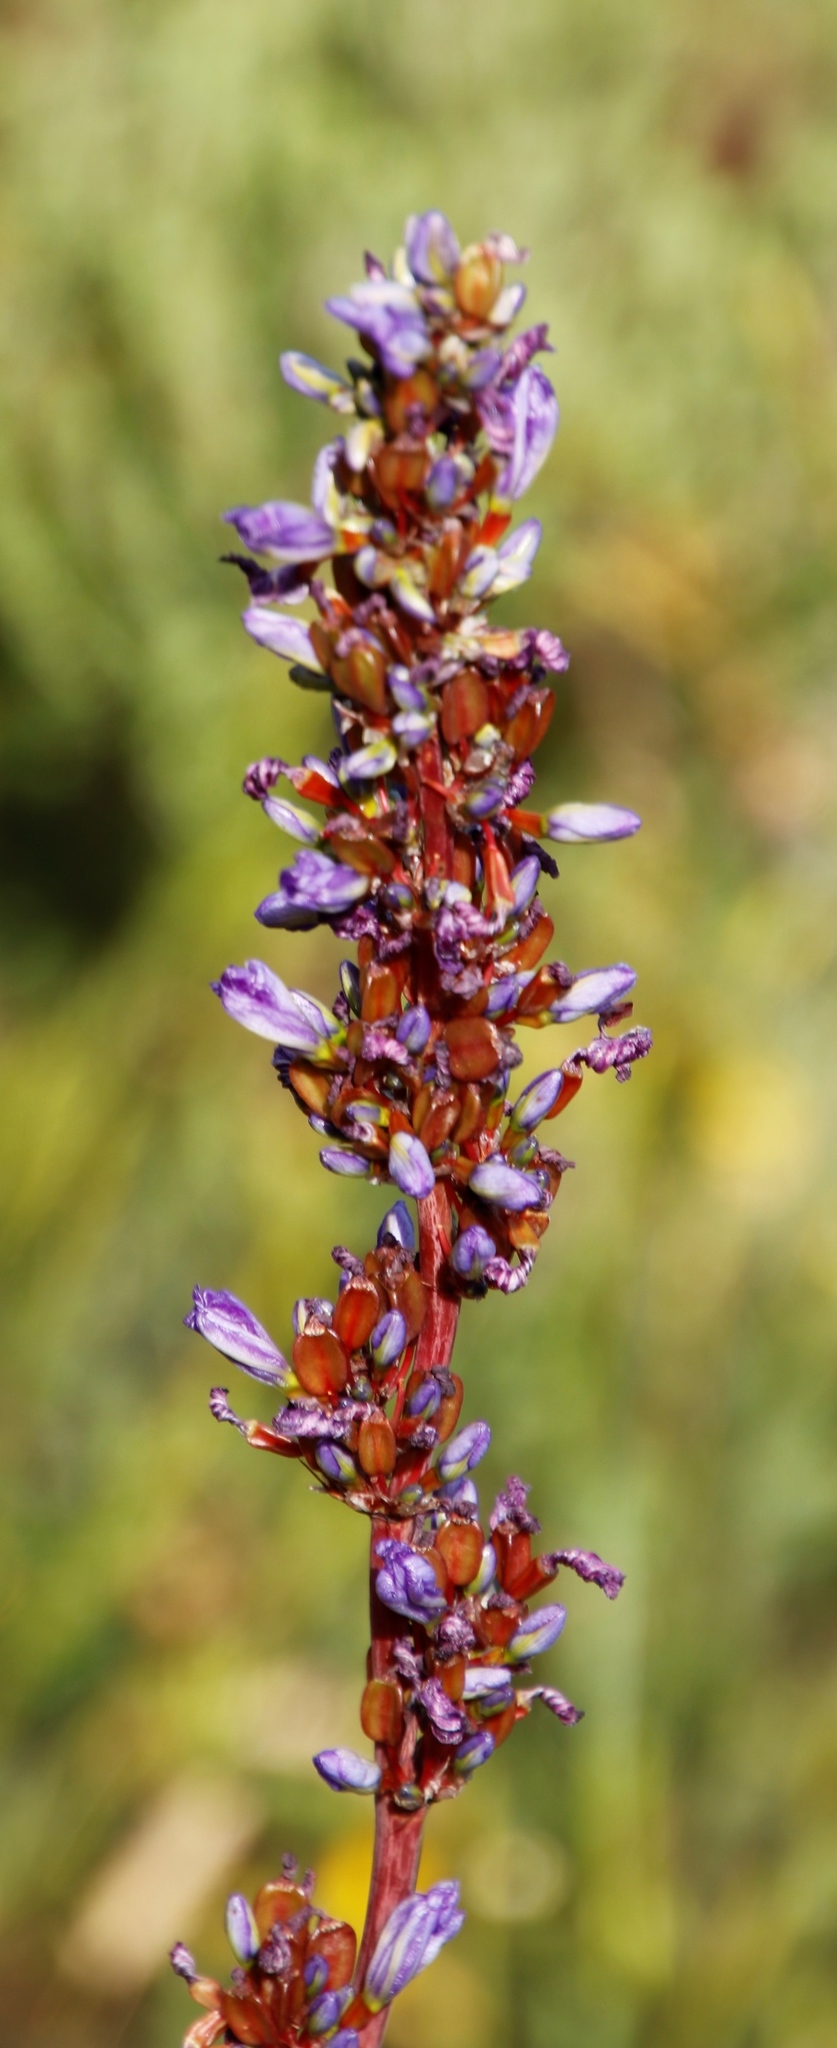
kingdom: Plantae
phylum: Tracheophyta
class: Liliopsida
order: Asparagales
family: Iridaceae
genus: Aristea
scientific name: Aristea capitata
